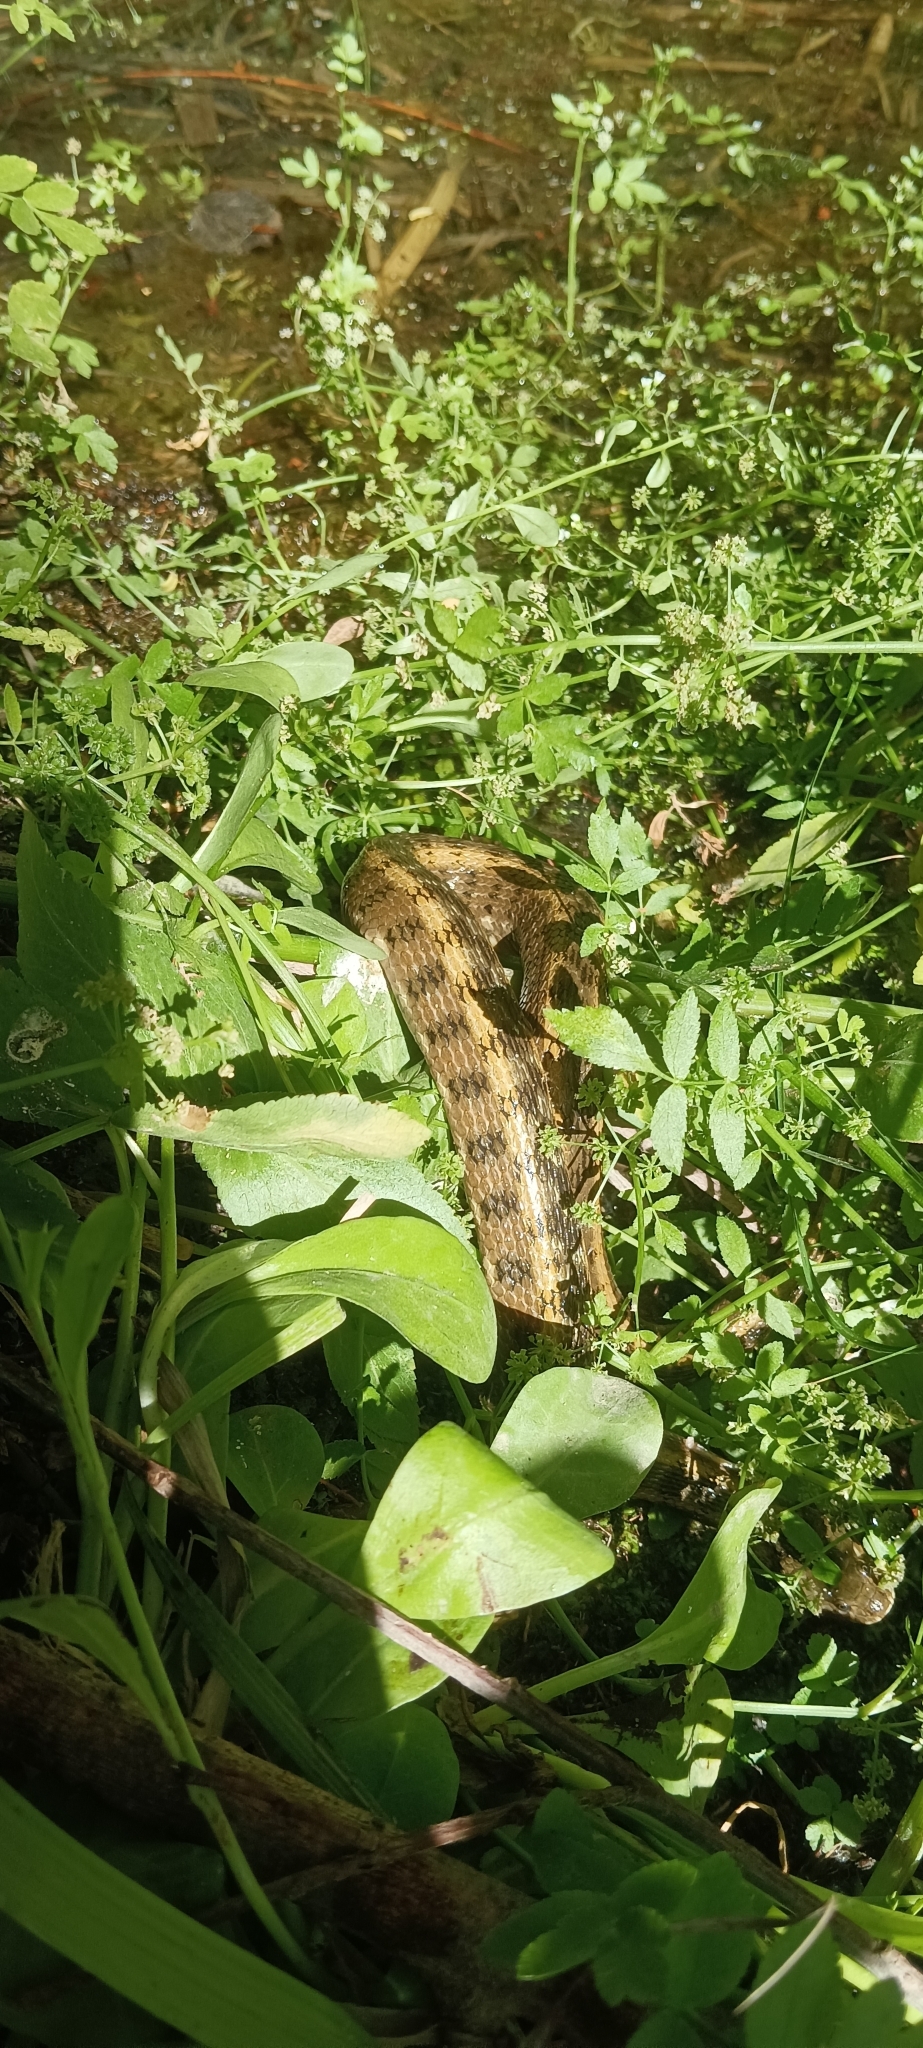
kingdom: Animalia
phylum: Chordata
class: Squamata
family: Colubridae
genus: Natrix
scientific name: Natrix maura
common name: Viperine water snake
